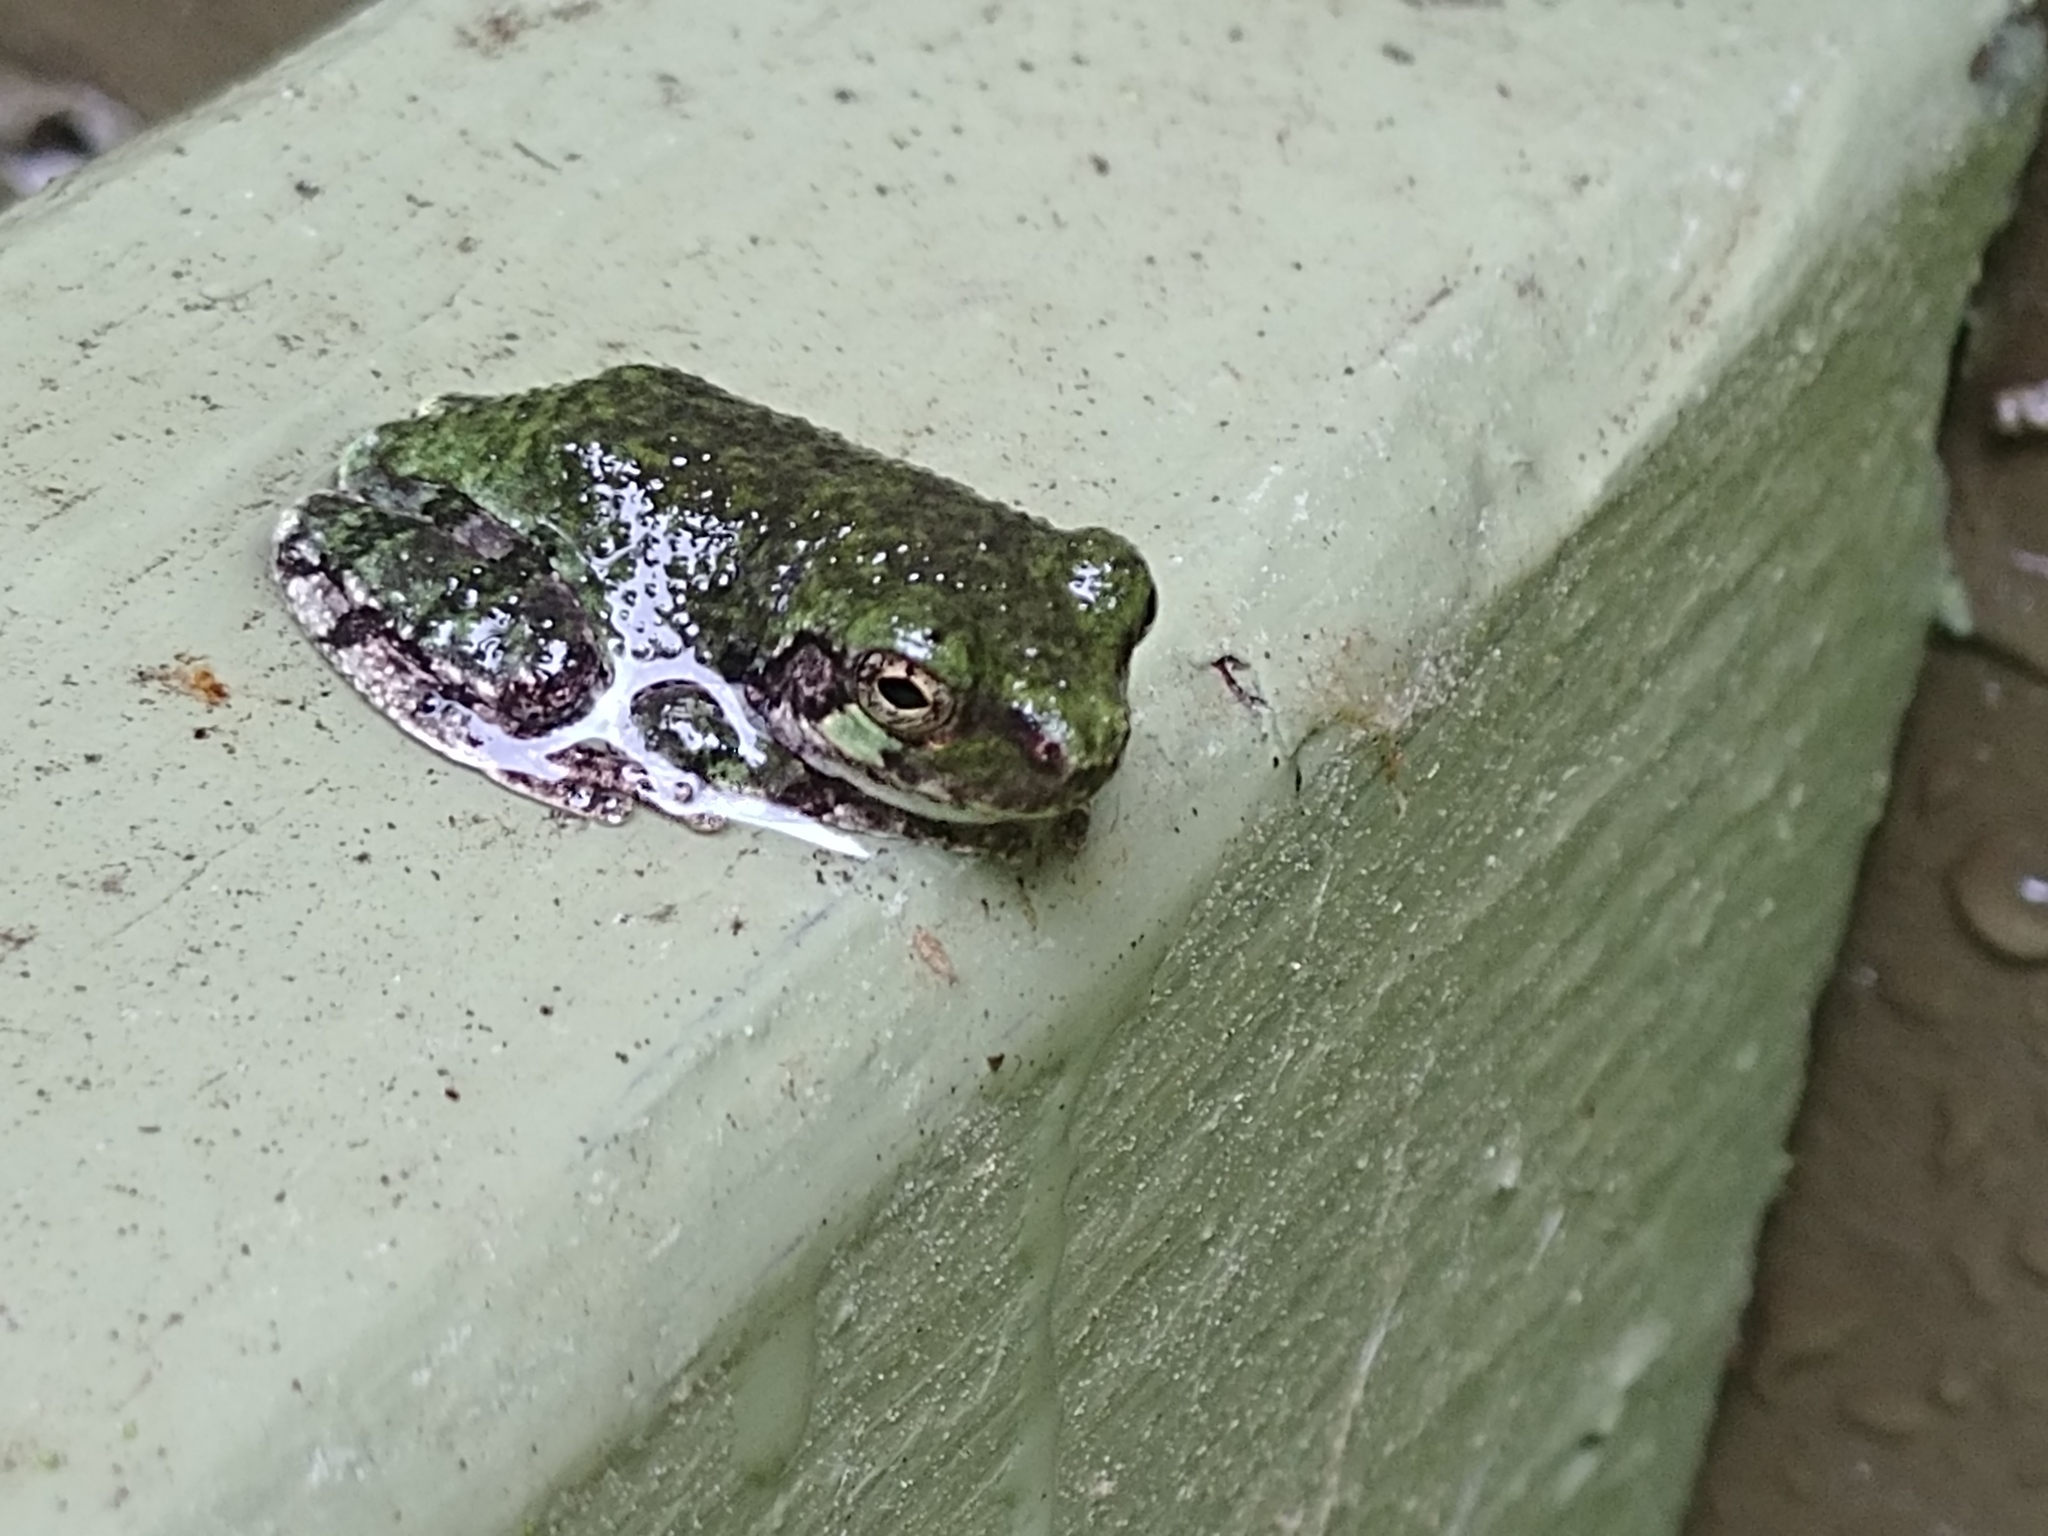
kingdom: Animalia
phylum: Chordata
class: Amphibia
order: Anura
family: Hylidae
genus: Dryophytes
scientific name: Dryophytes versicolor
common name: Gray treefrog
